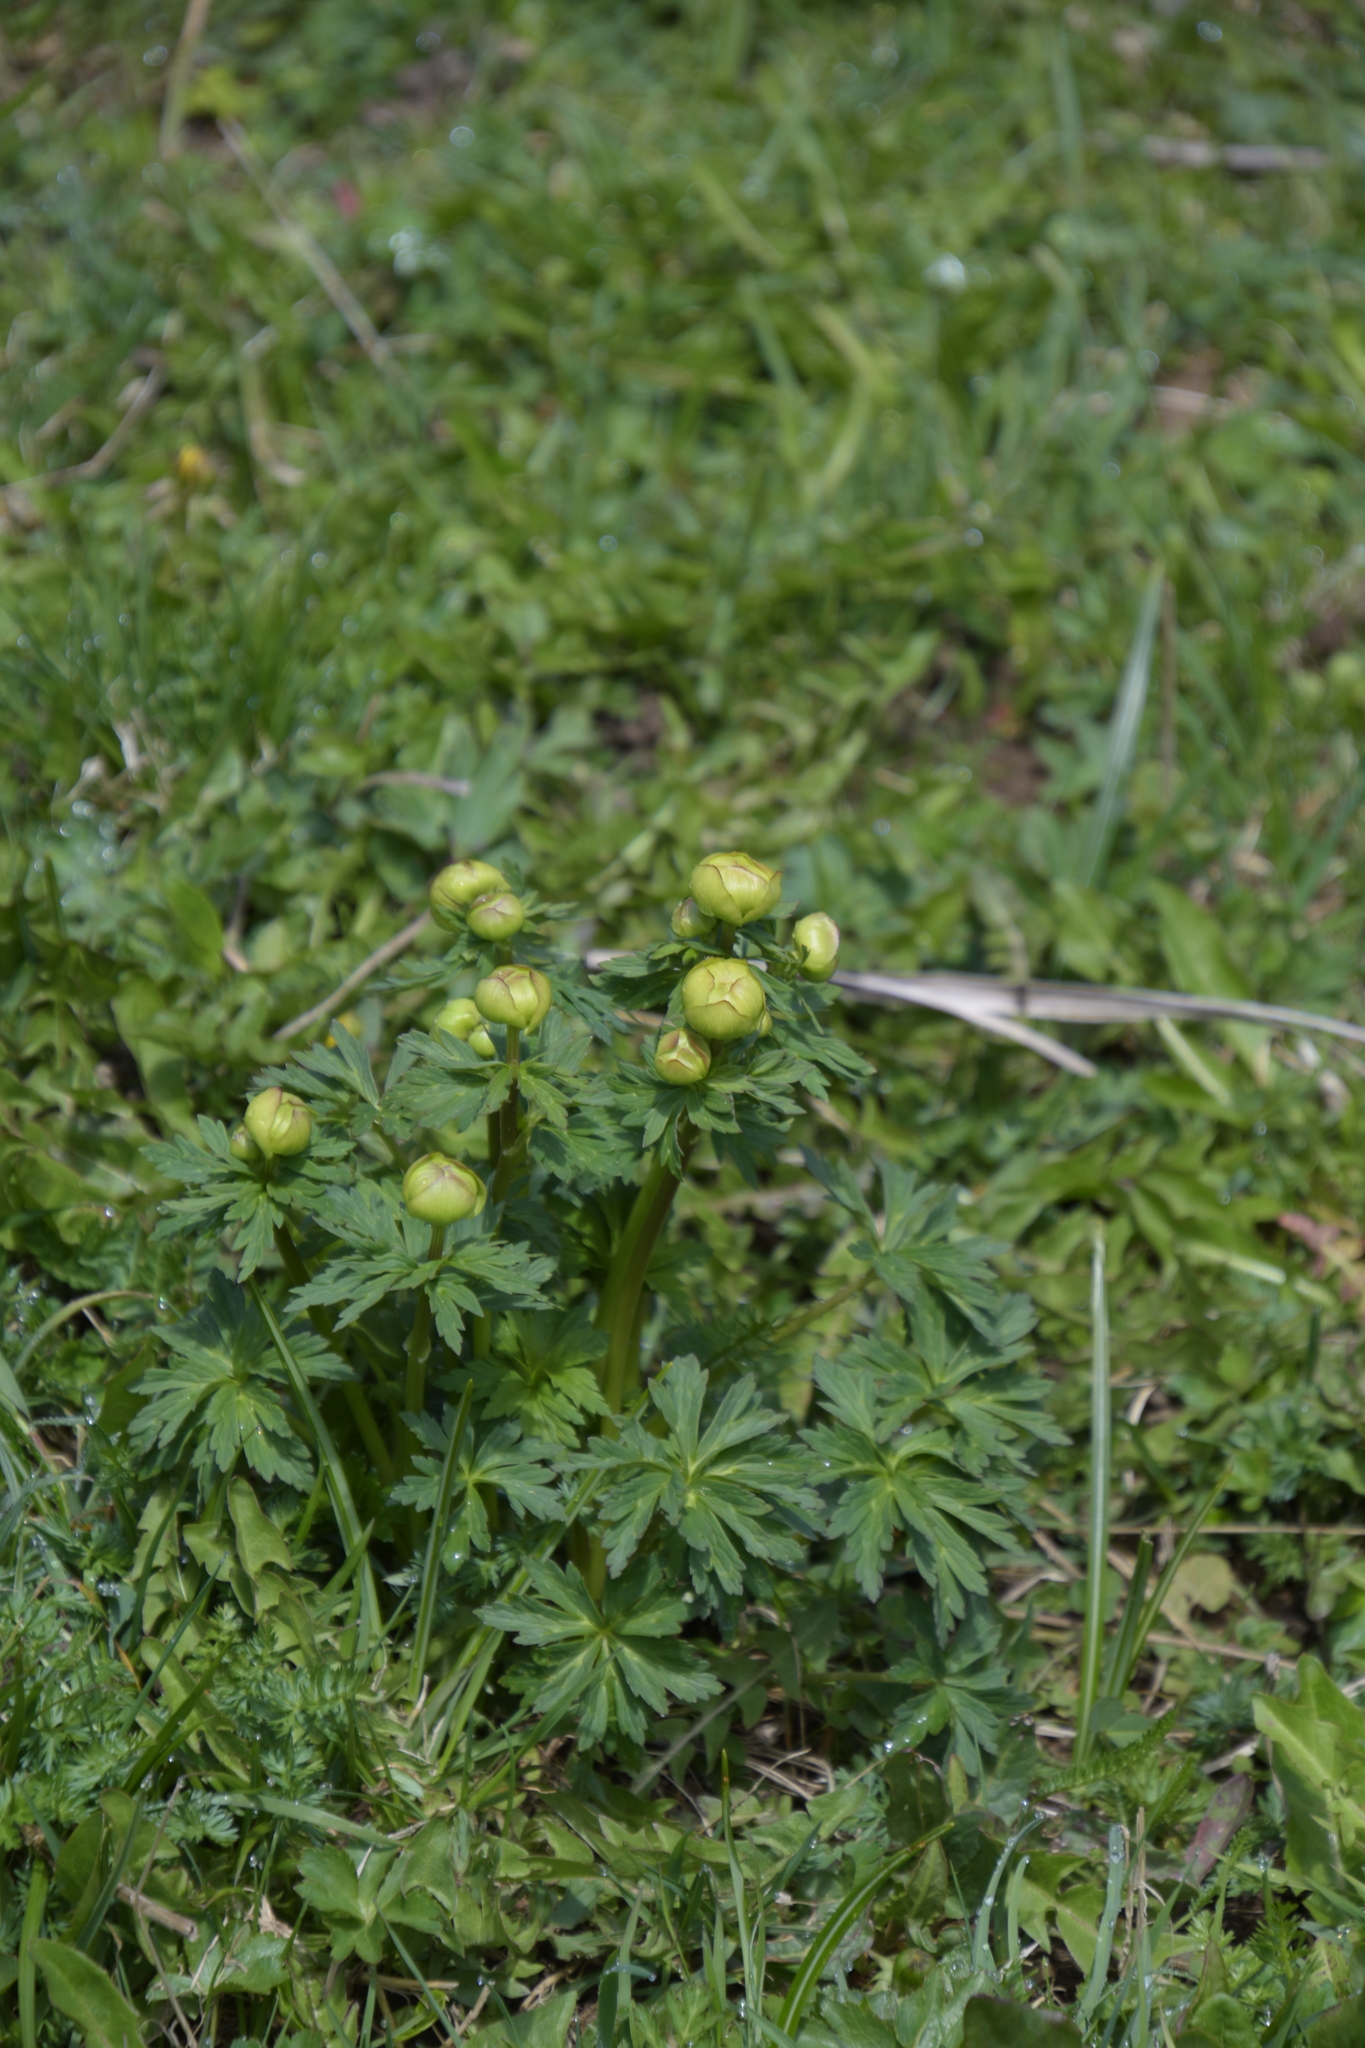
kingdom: Plantae
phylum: Tracheophyta
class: Magnoliopsida
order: Ranunculales
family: Ranunculaceae
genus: Trollius
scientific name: Trollius europaeus
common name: European globeflower
